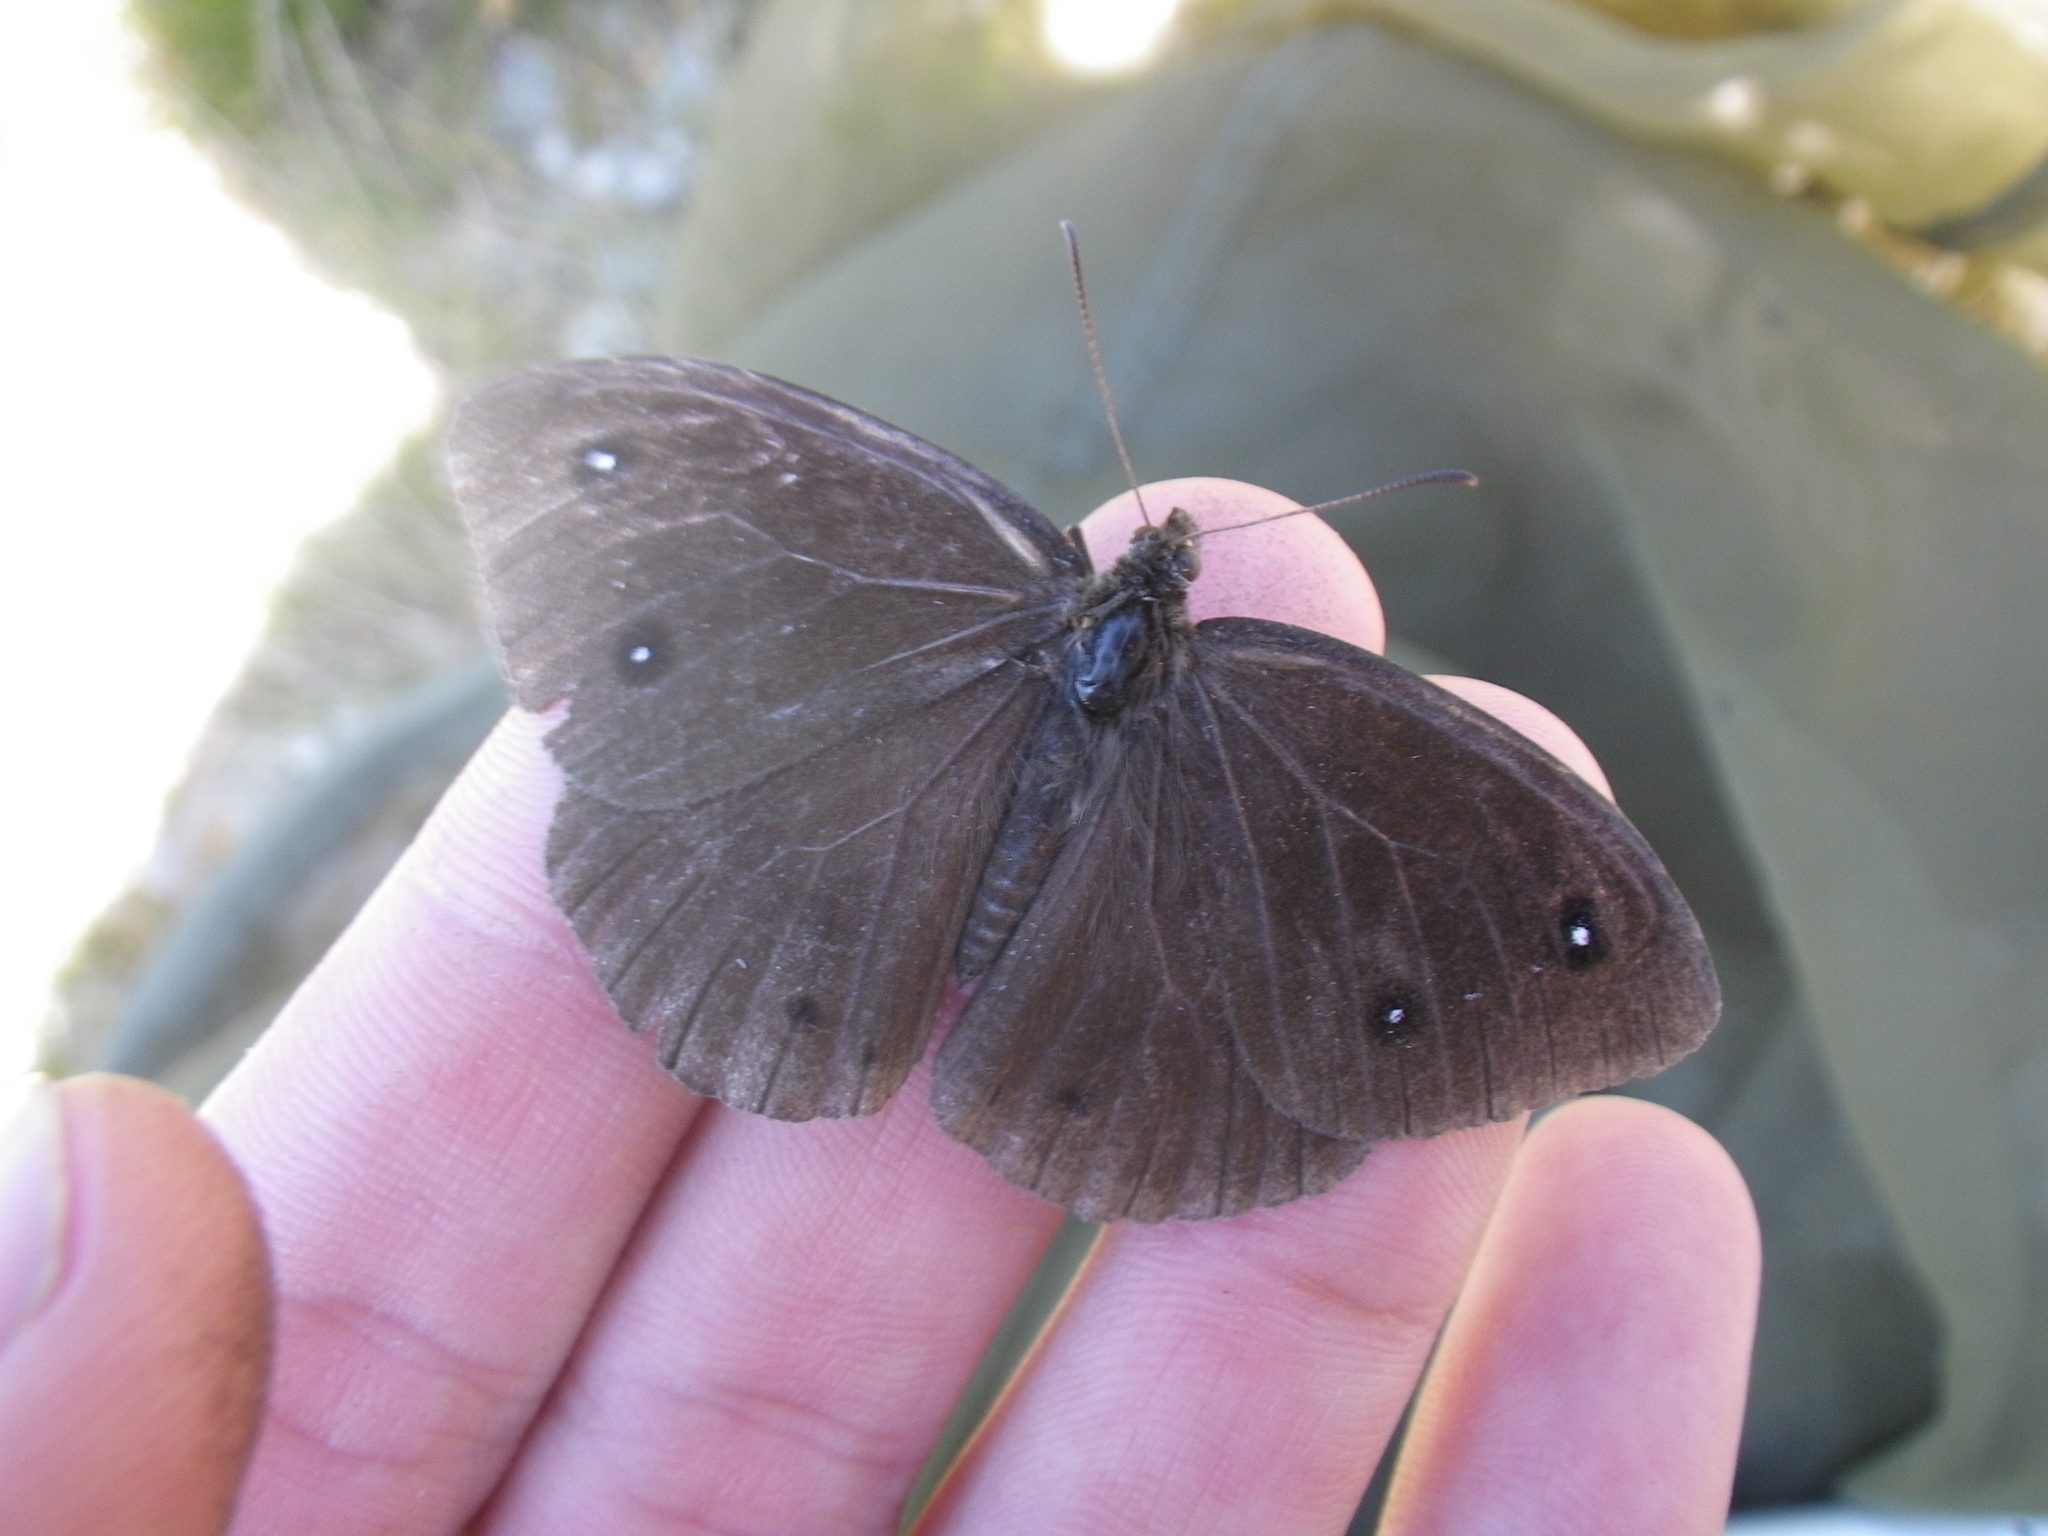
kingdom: Animalia
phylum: Arthropoda
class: Insecta
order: Lepidoptera
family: Nymphalidae
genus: Satyrus
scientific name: Satyrus ferula
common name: Great sooty satyr
